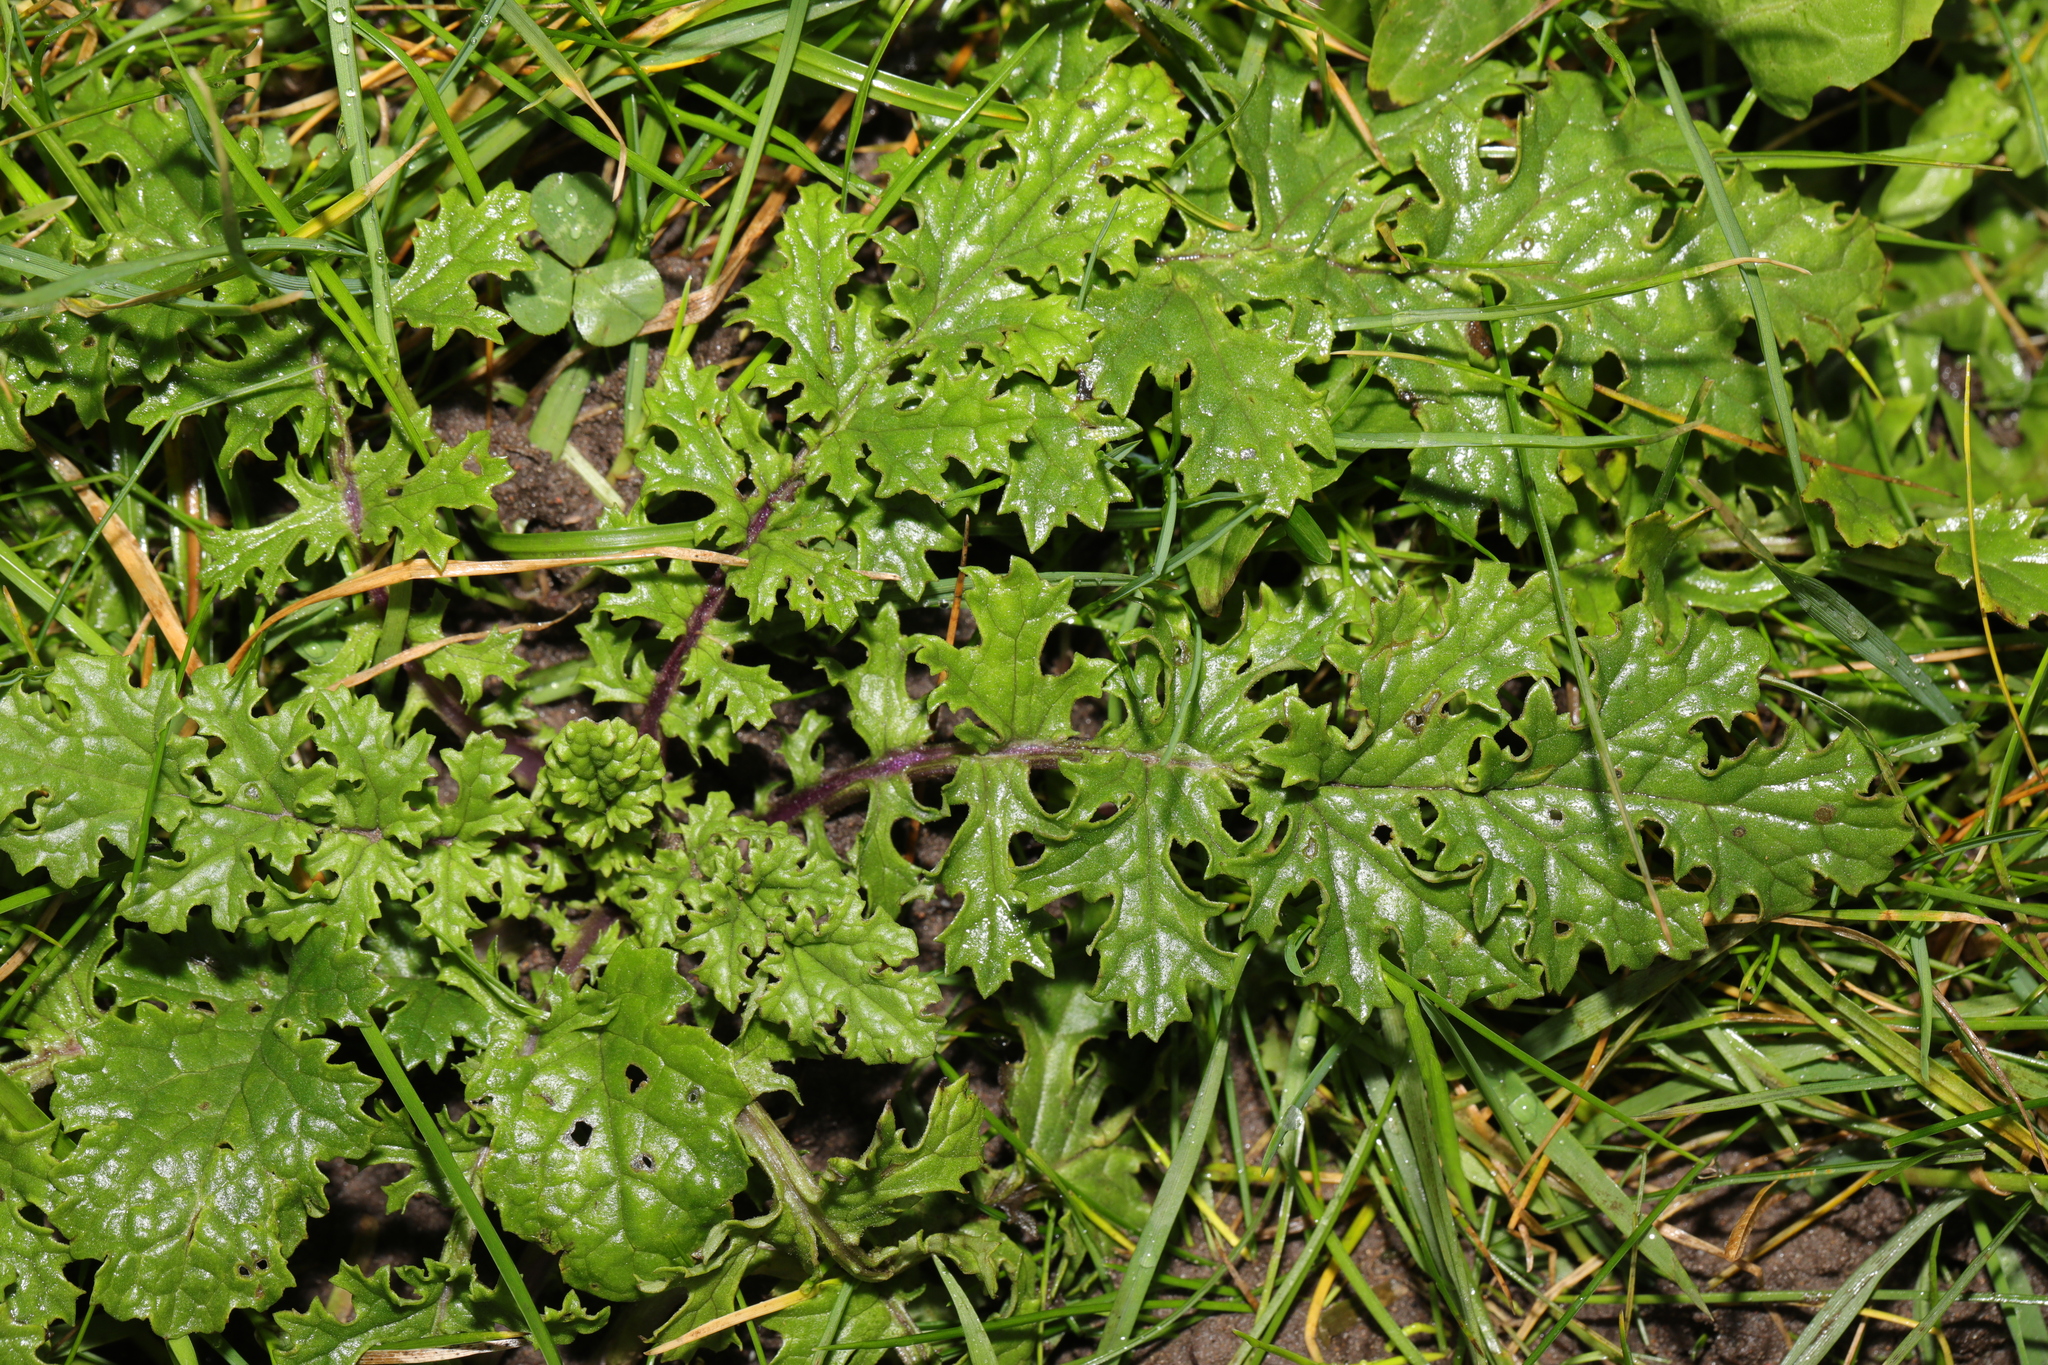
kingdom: Plantae
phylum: Tracheophyta
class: Magnoliopsida
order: Asterales
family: Asteraceae
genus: Jacobaea
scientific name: Jacobaea vulgaris
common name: Stinking willie
